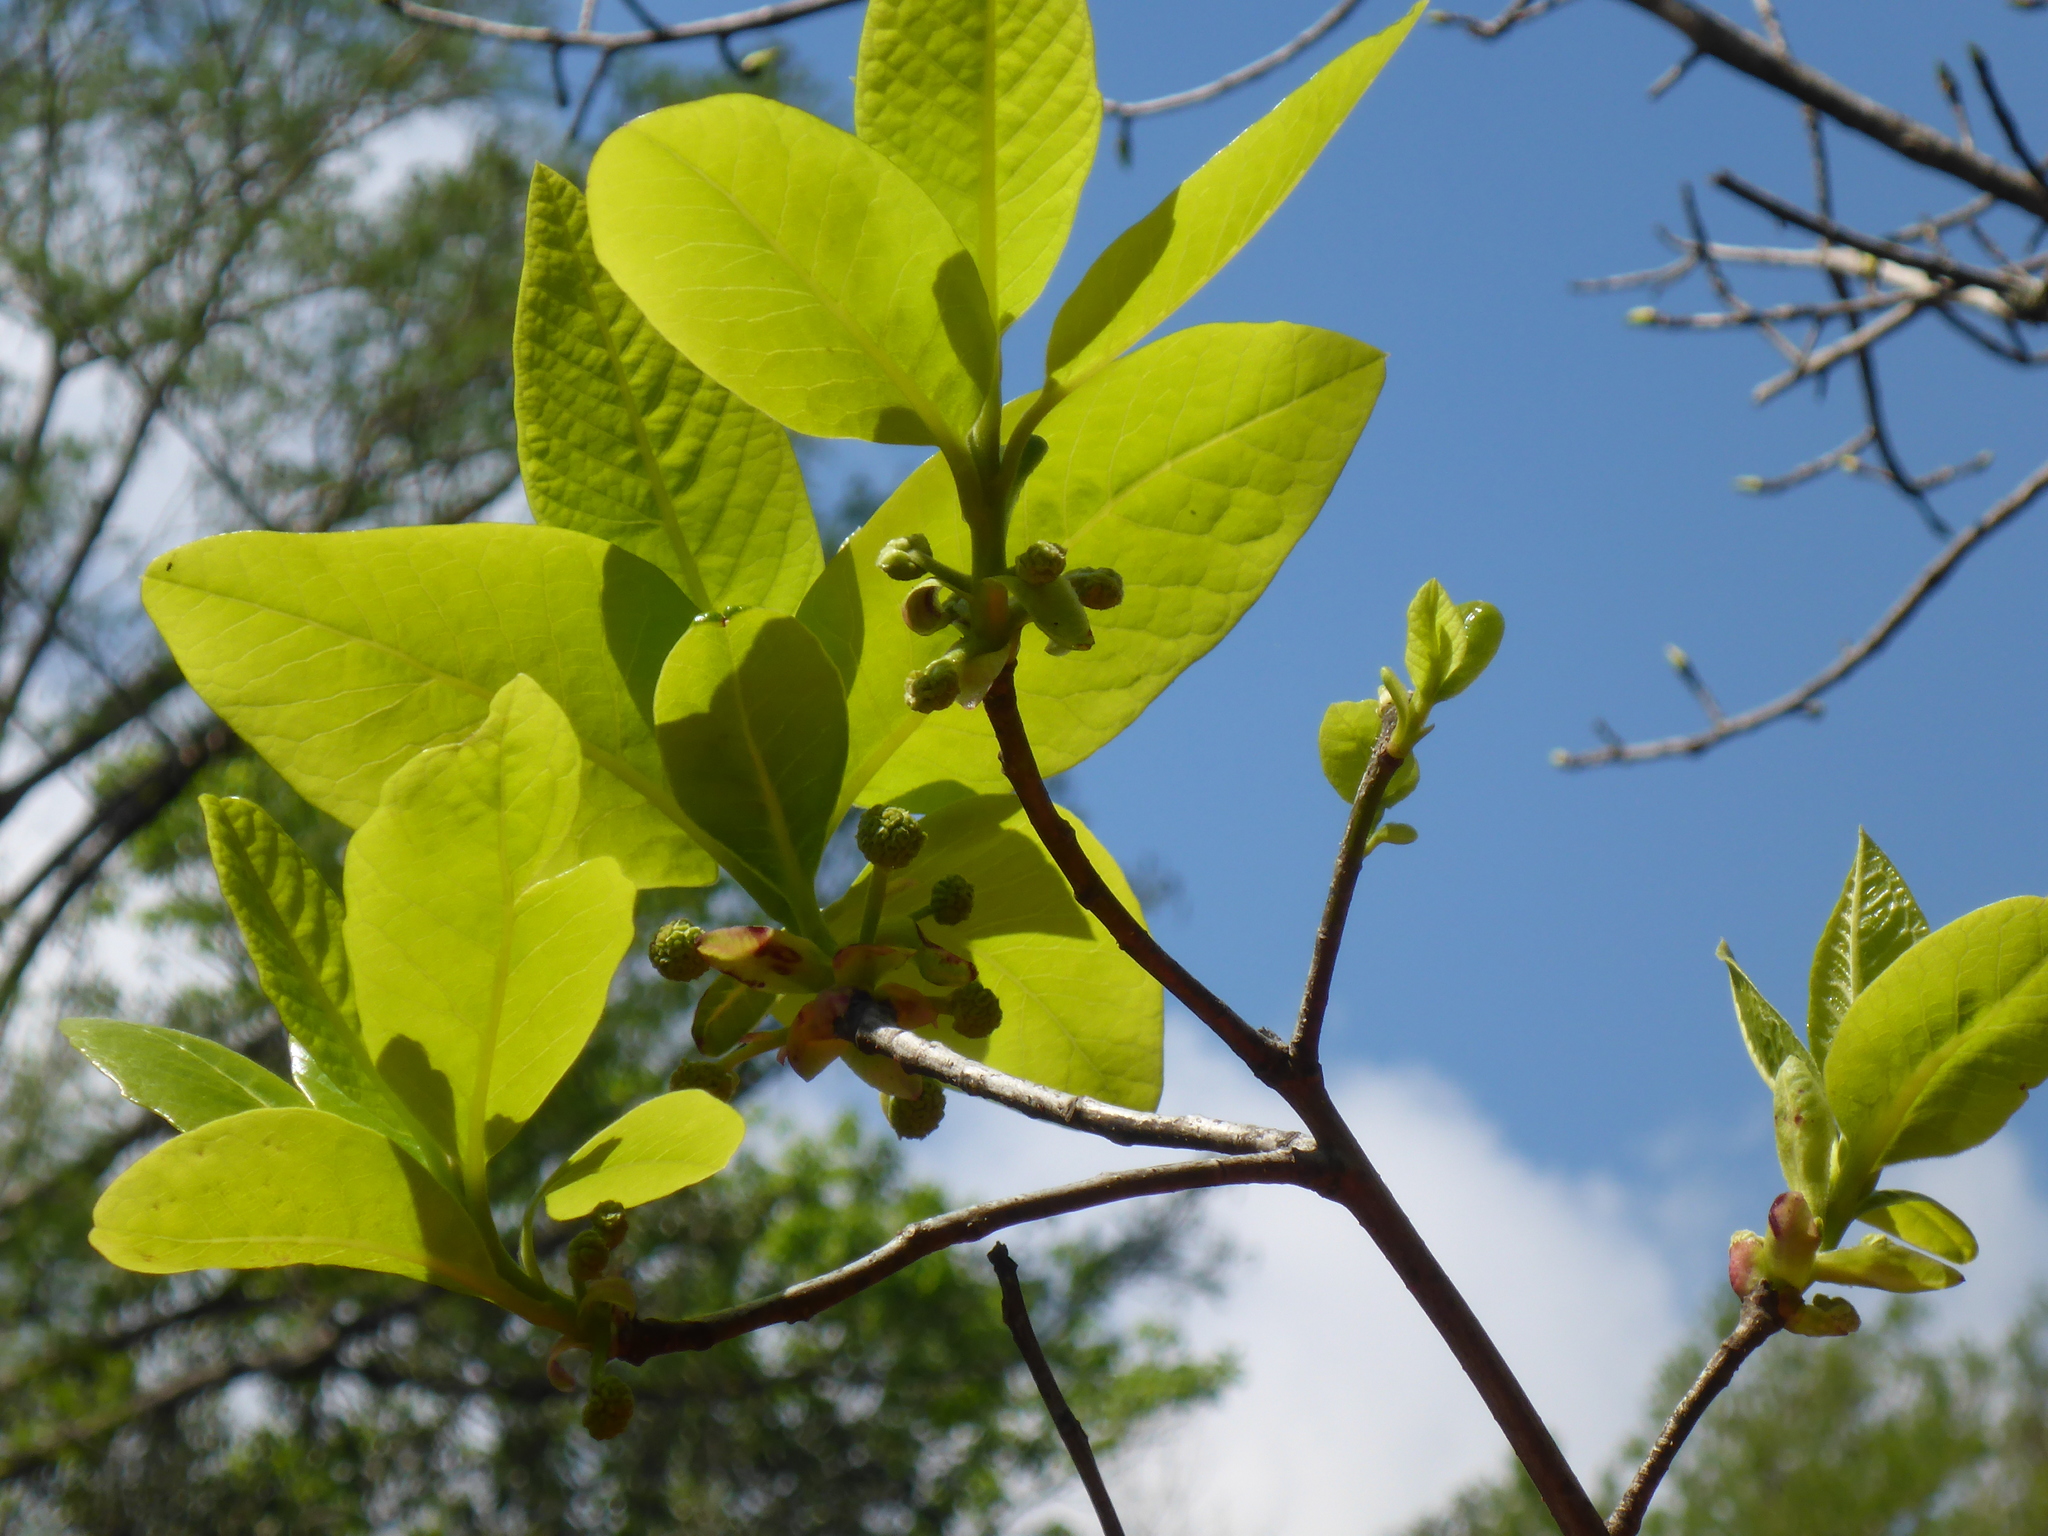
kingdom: Plantae
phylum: Tracheophyta
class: Magnoliopsida
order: Cornales
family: Nyssaceae
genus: Nyssa
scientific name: Nyssa ogeche
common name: Ogeechee tupelo
